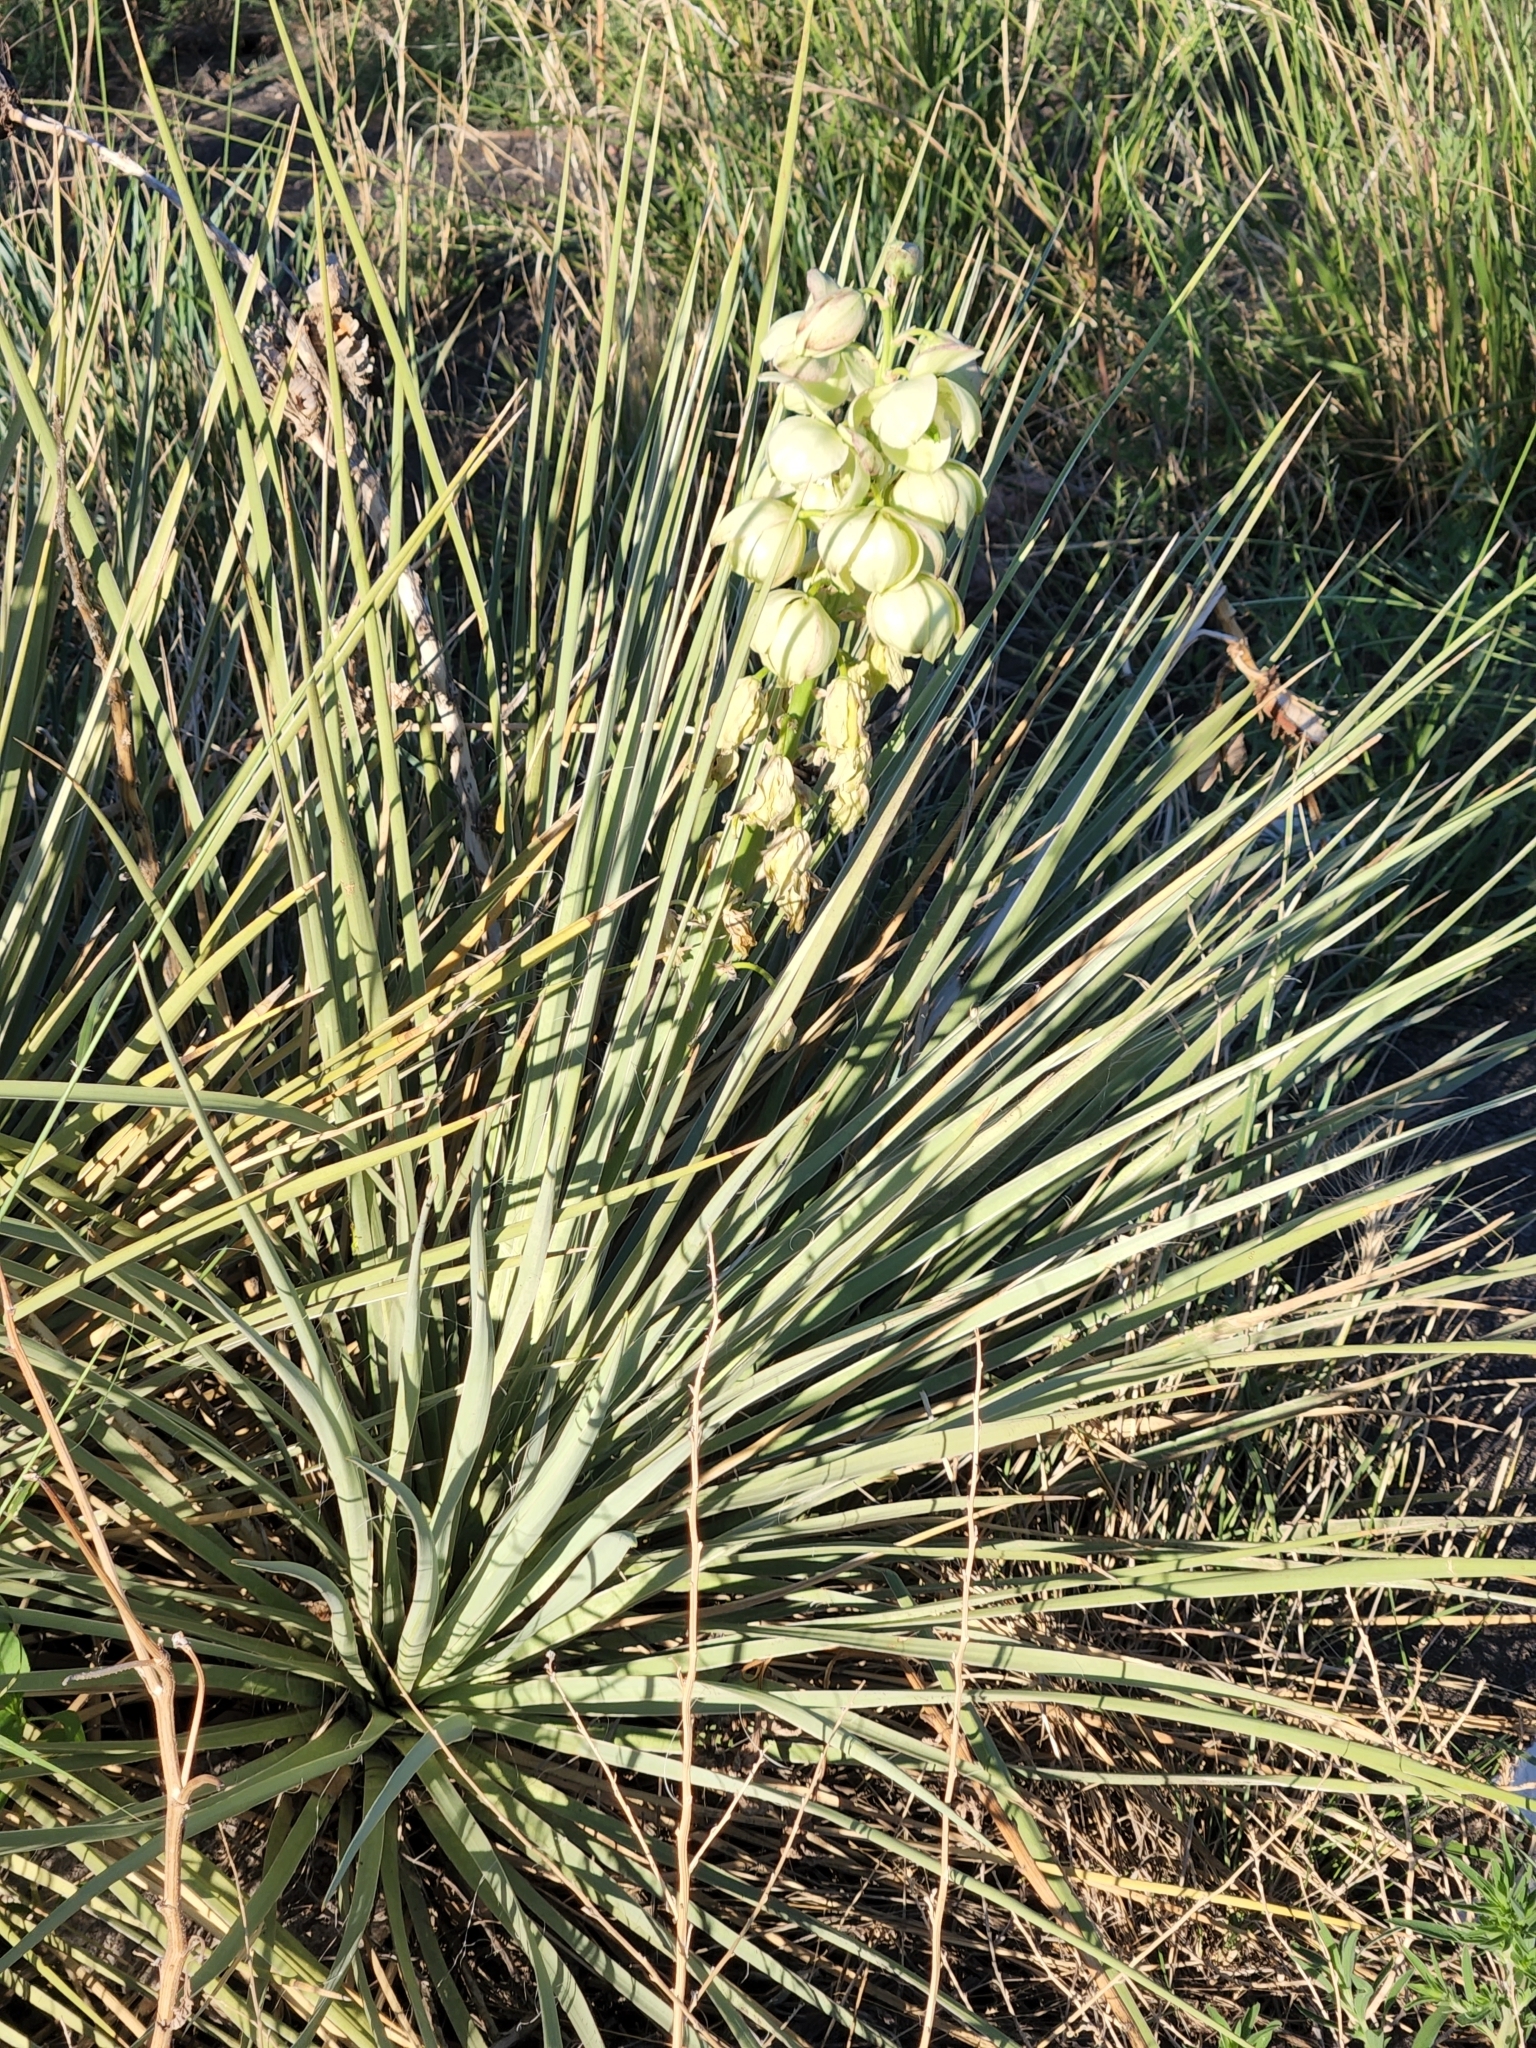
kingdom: Plantae
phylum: Tracheophyta
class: Liliopsida
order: Asparagales
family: Asparagaceae
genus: Yucca
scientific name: Yucca glauca
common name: Great plains yucca
